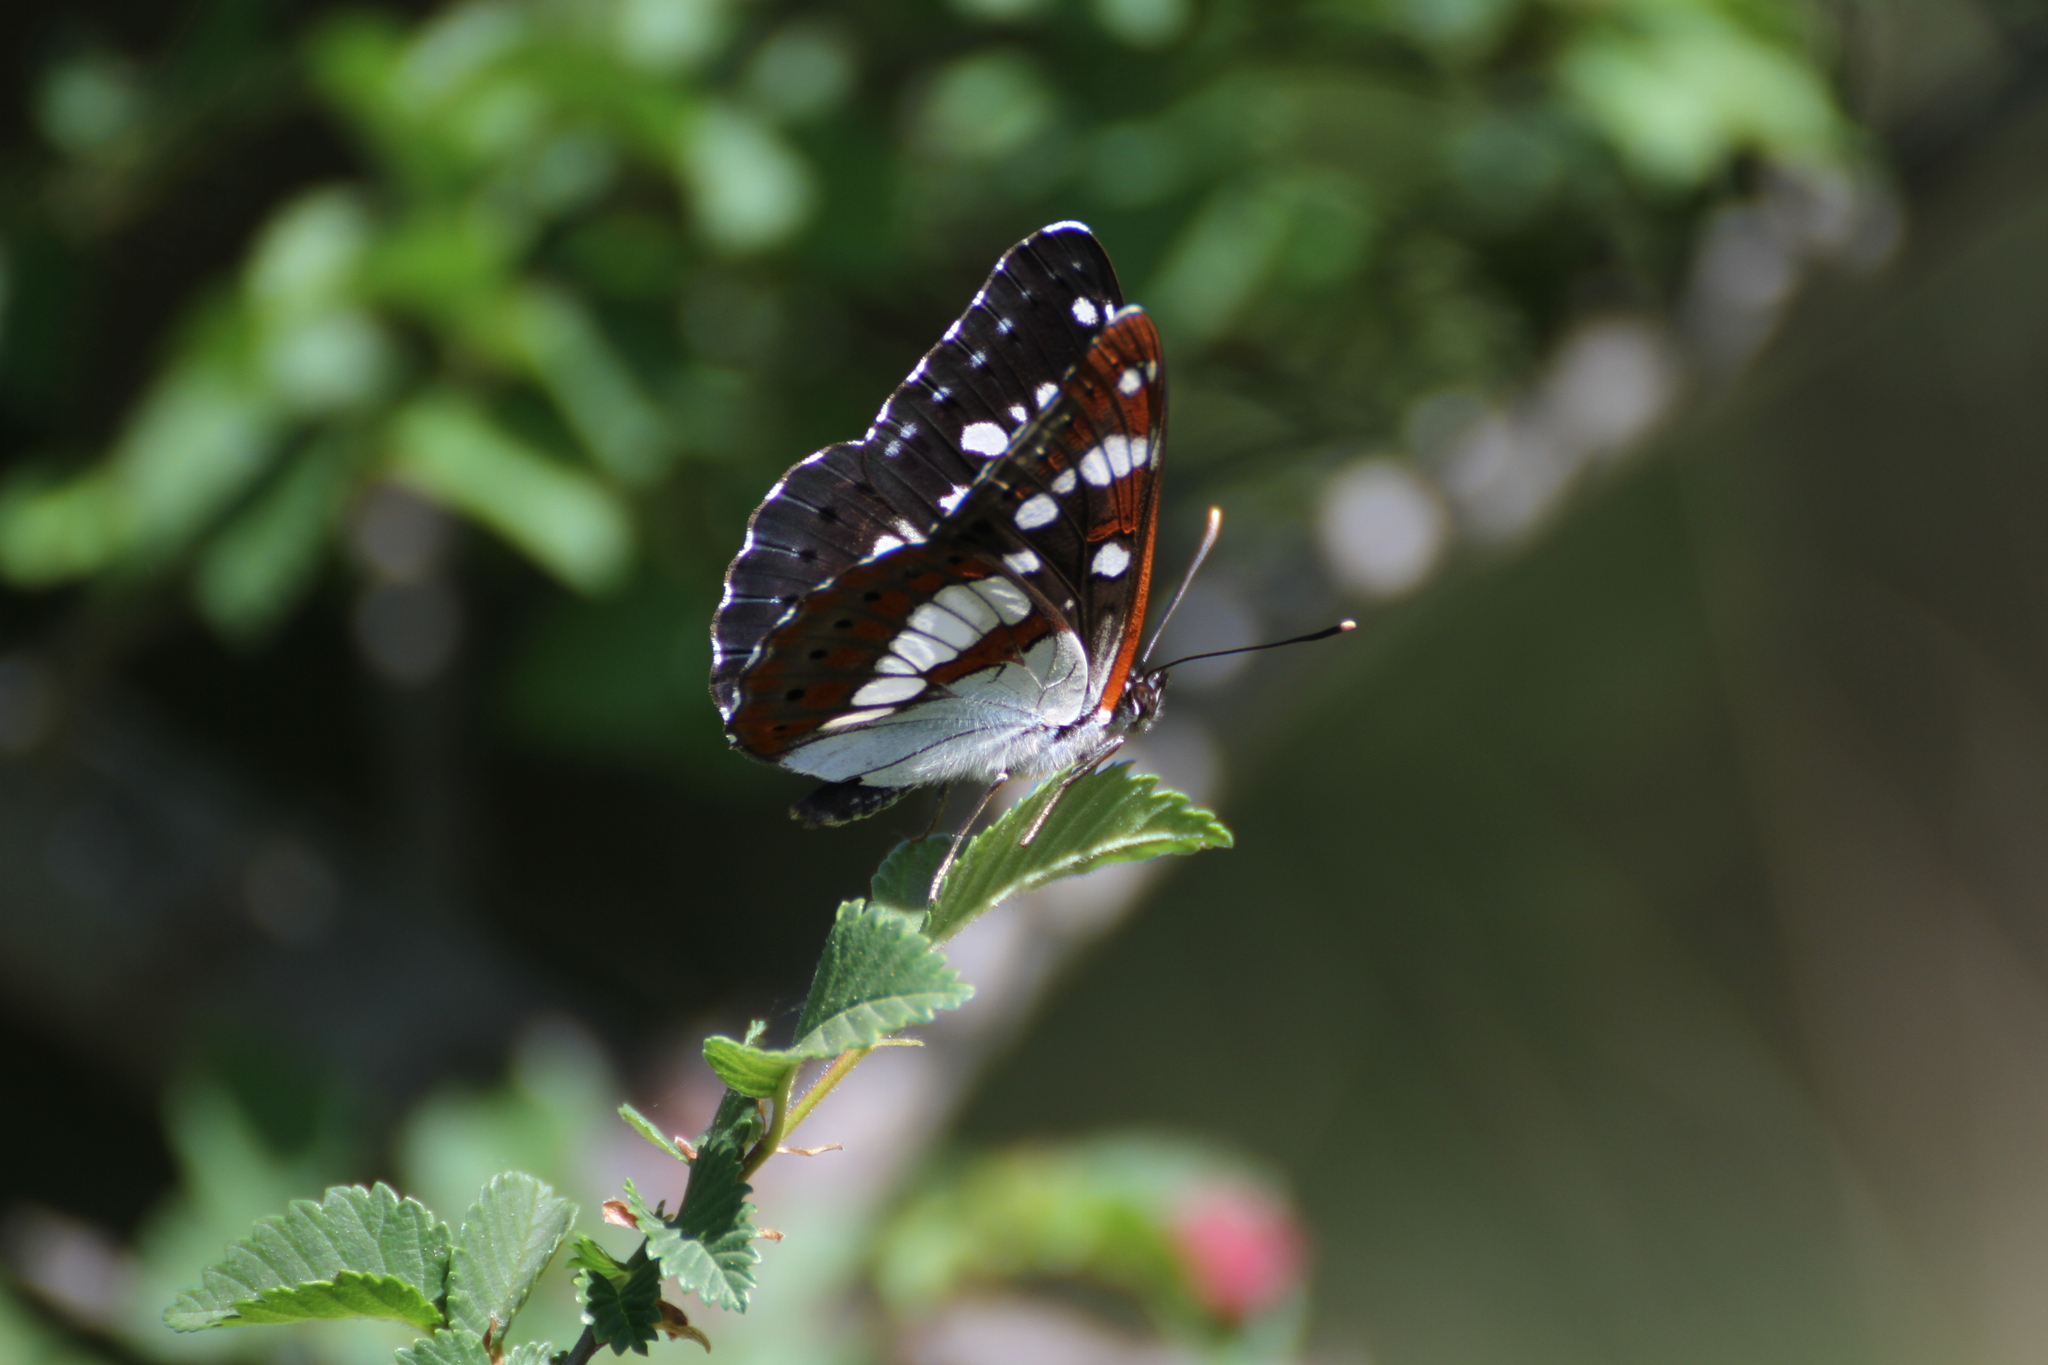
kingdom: Animalia
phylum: Arthropoda
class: Insecta
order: Lepidoptera
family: Nymphalidae
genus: Limenitis
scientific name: Limenitis reducta
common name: Southern white admiral
